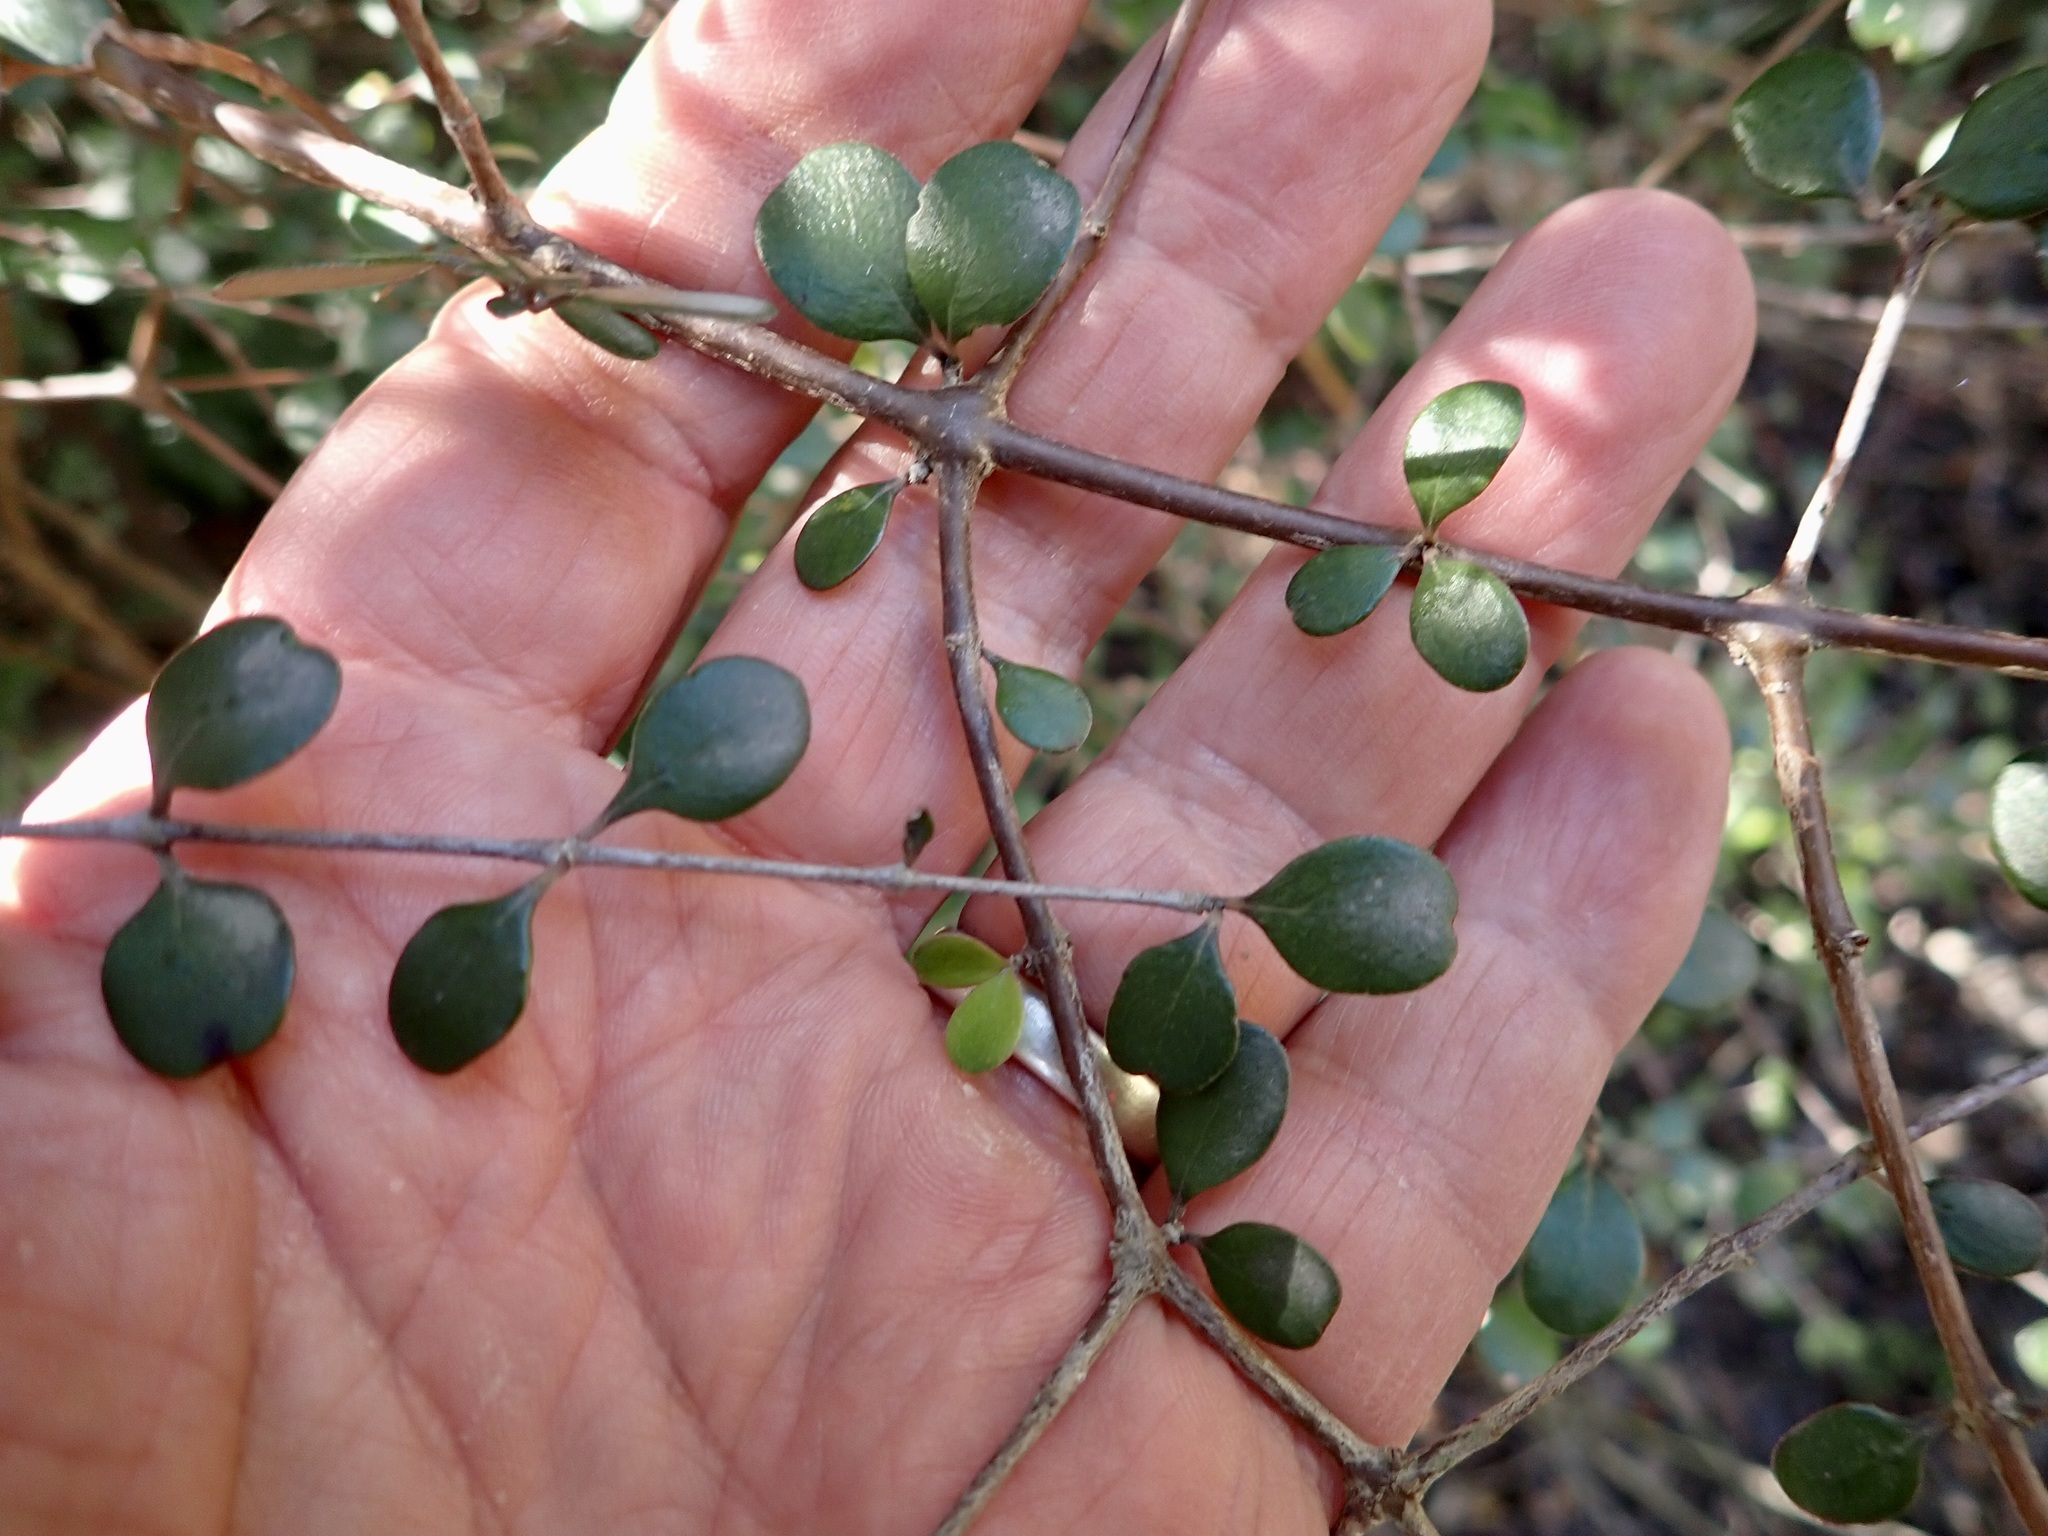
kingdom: Plantae
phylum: Tracheophyta
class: Magnoliopsida
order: Gentianales
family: Rubiaceae
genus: Coprosma
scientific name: Coprosma crassifolia
